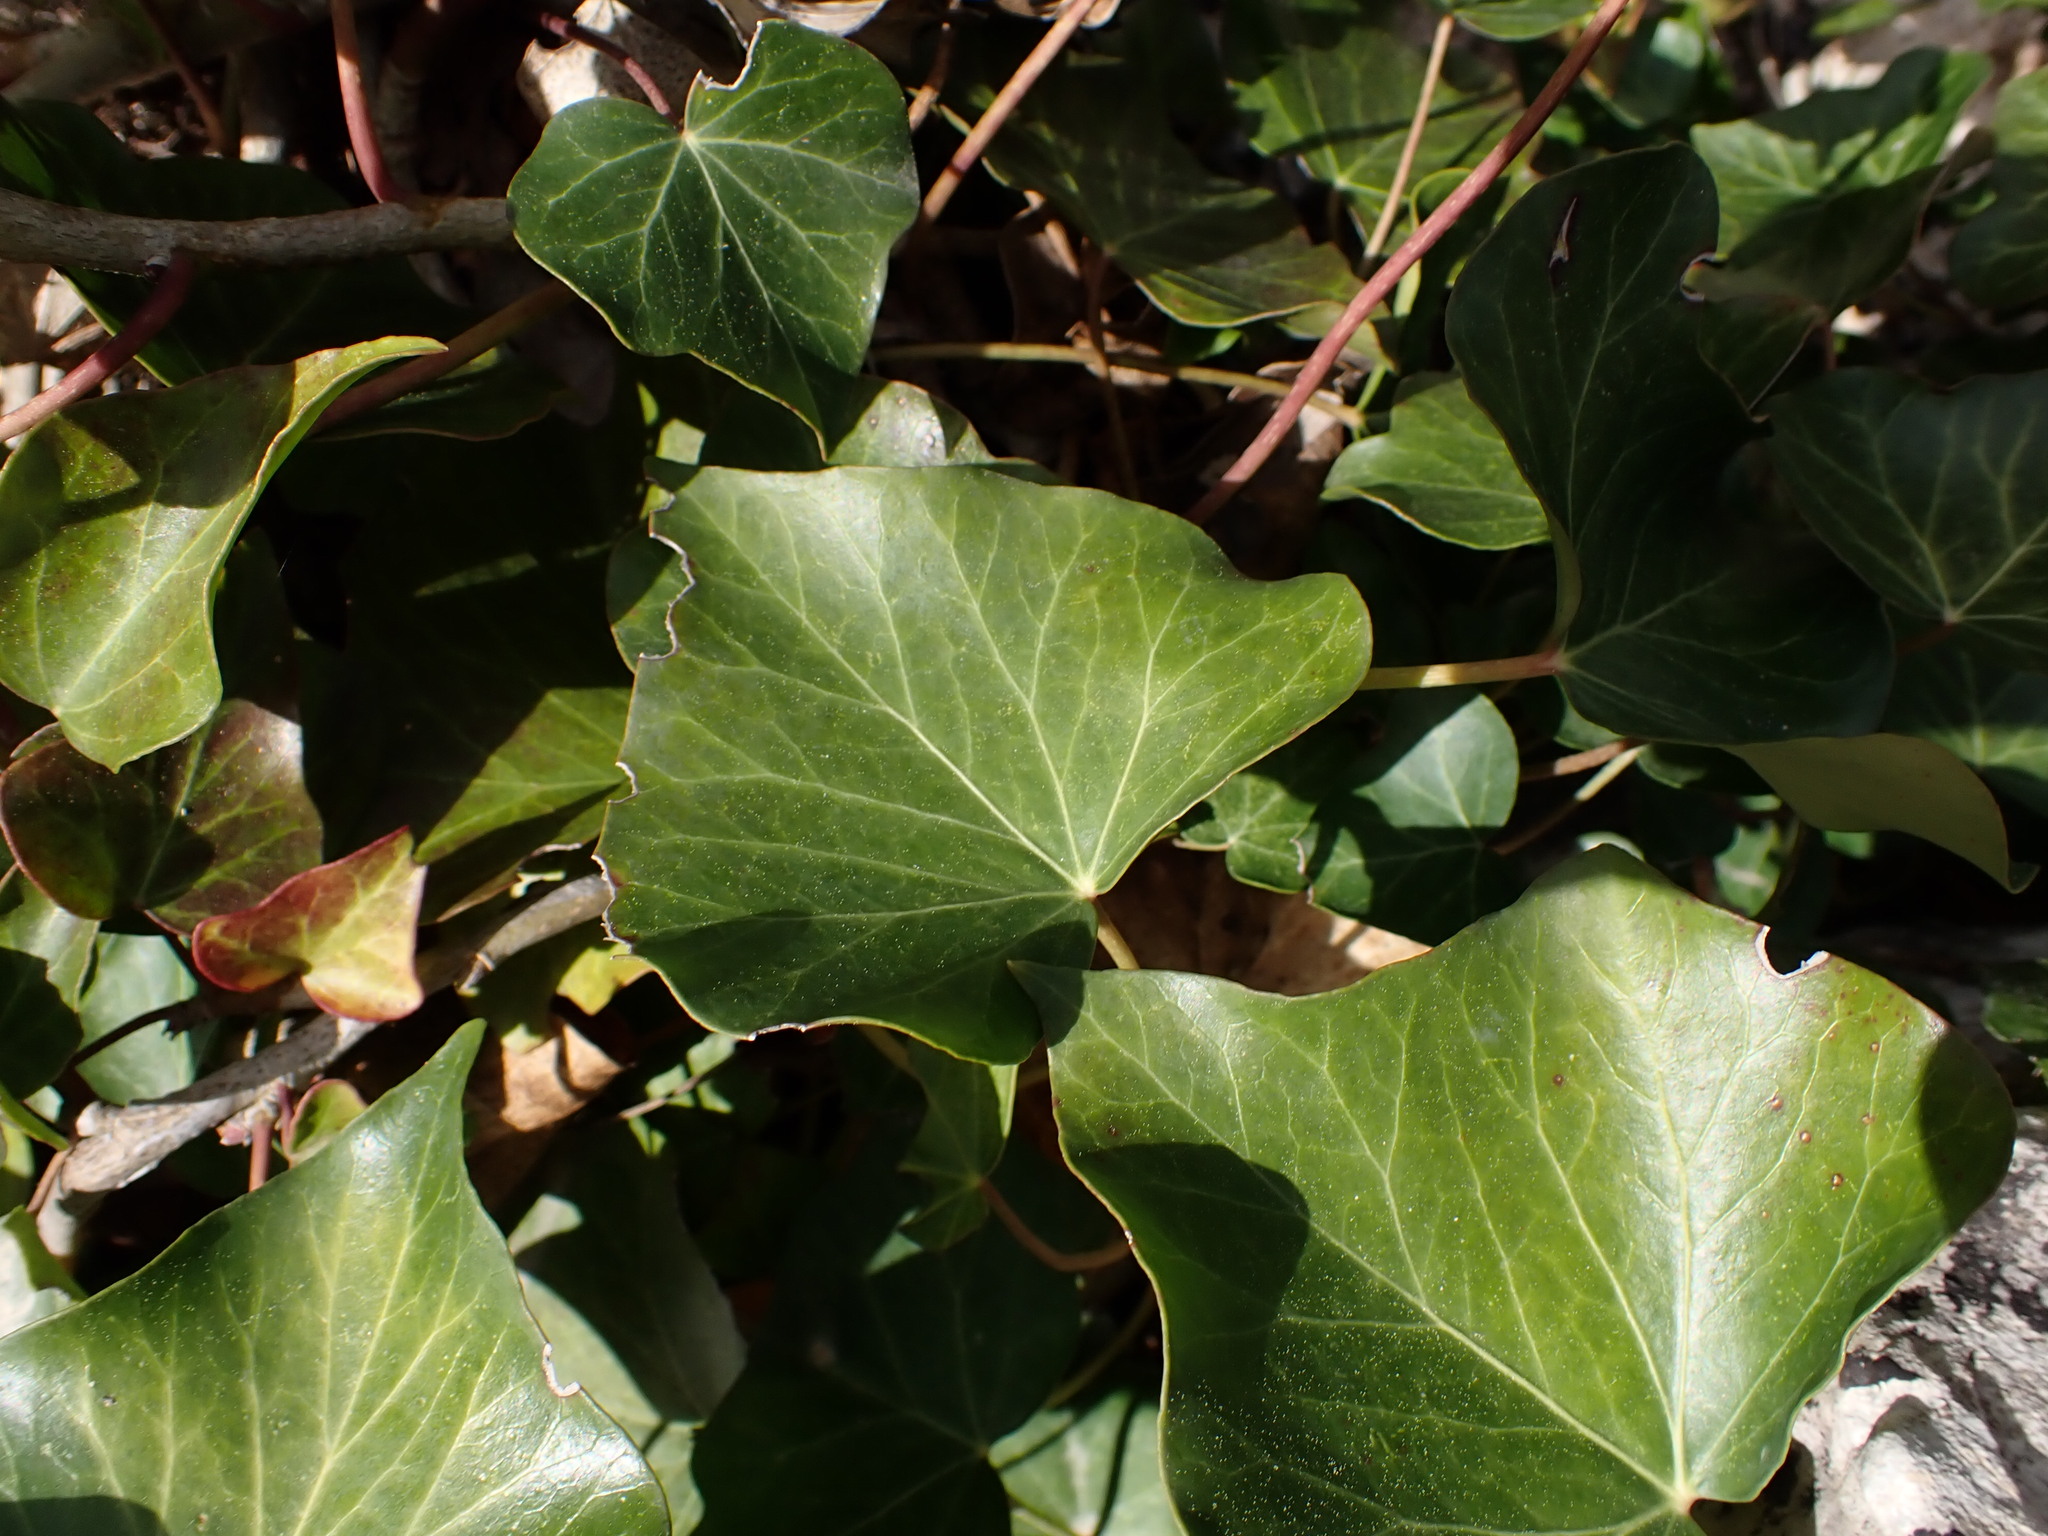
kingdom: Plantae
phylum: Tracheophyta
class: Magnoliopsida
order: Apiales
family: Araliaceae
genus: Hedera
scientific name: Hedera helix
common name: Ivy
